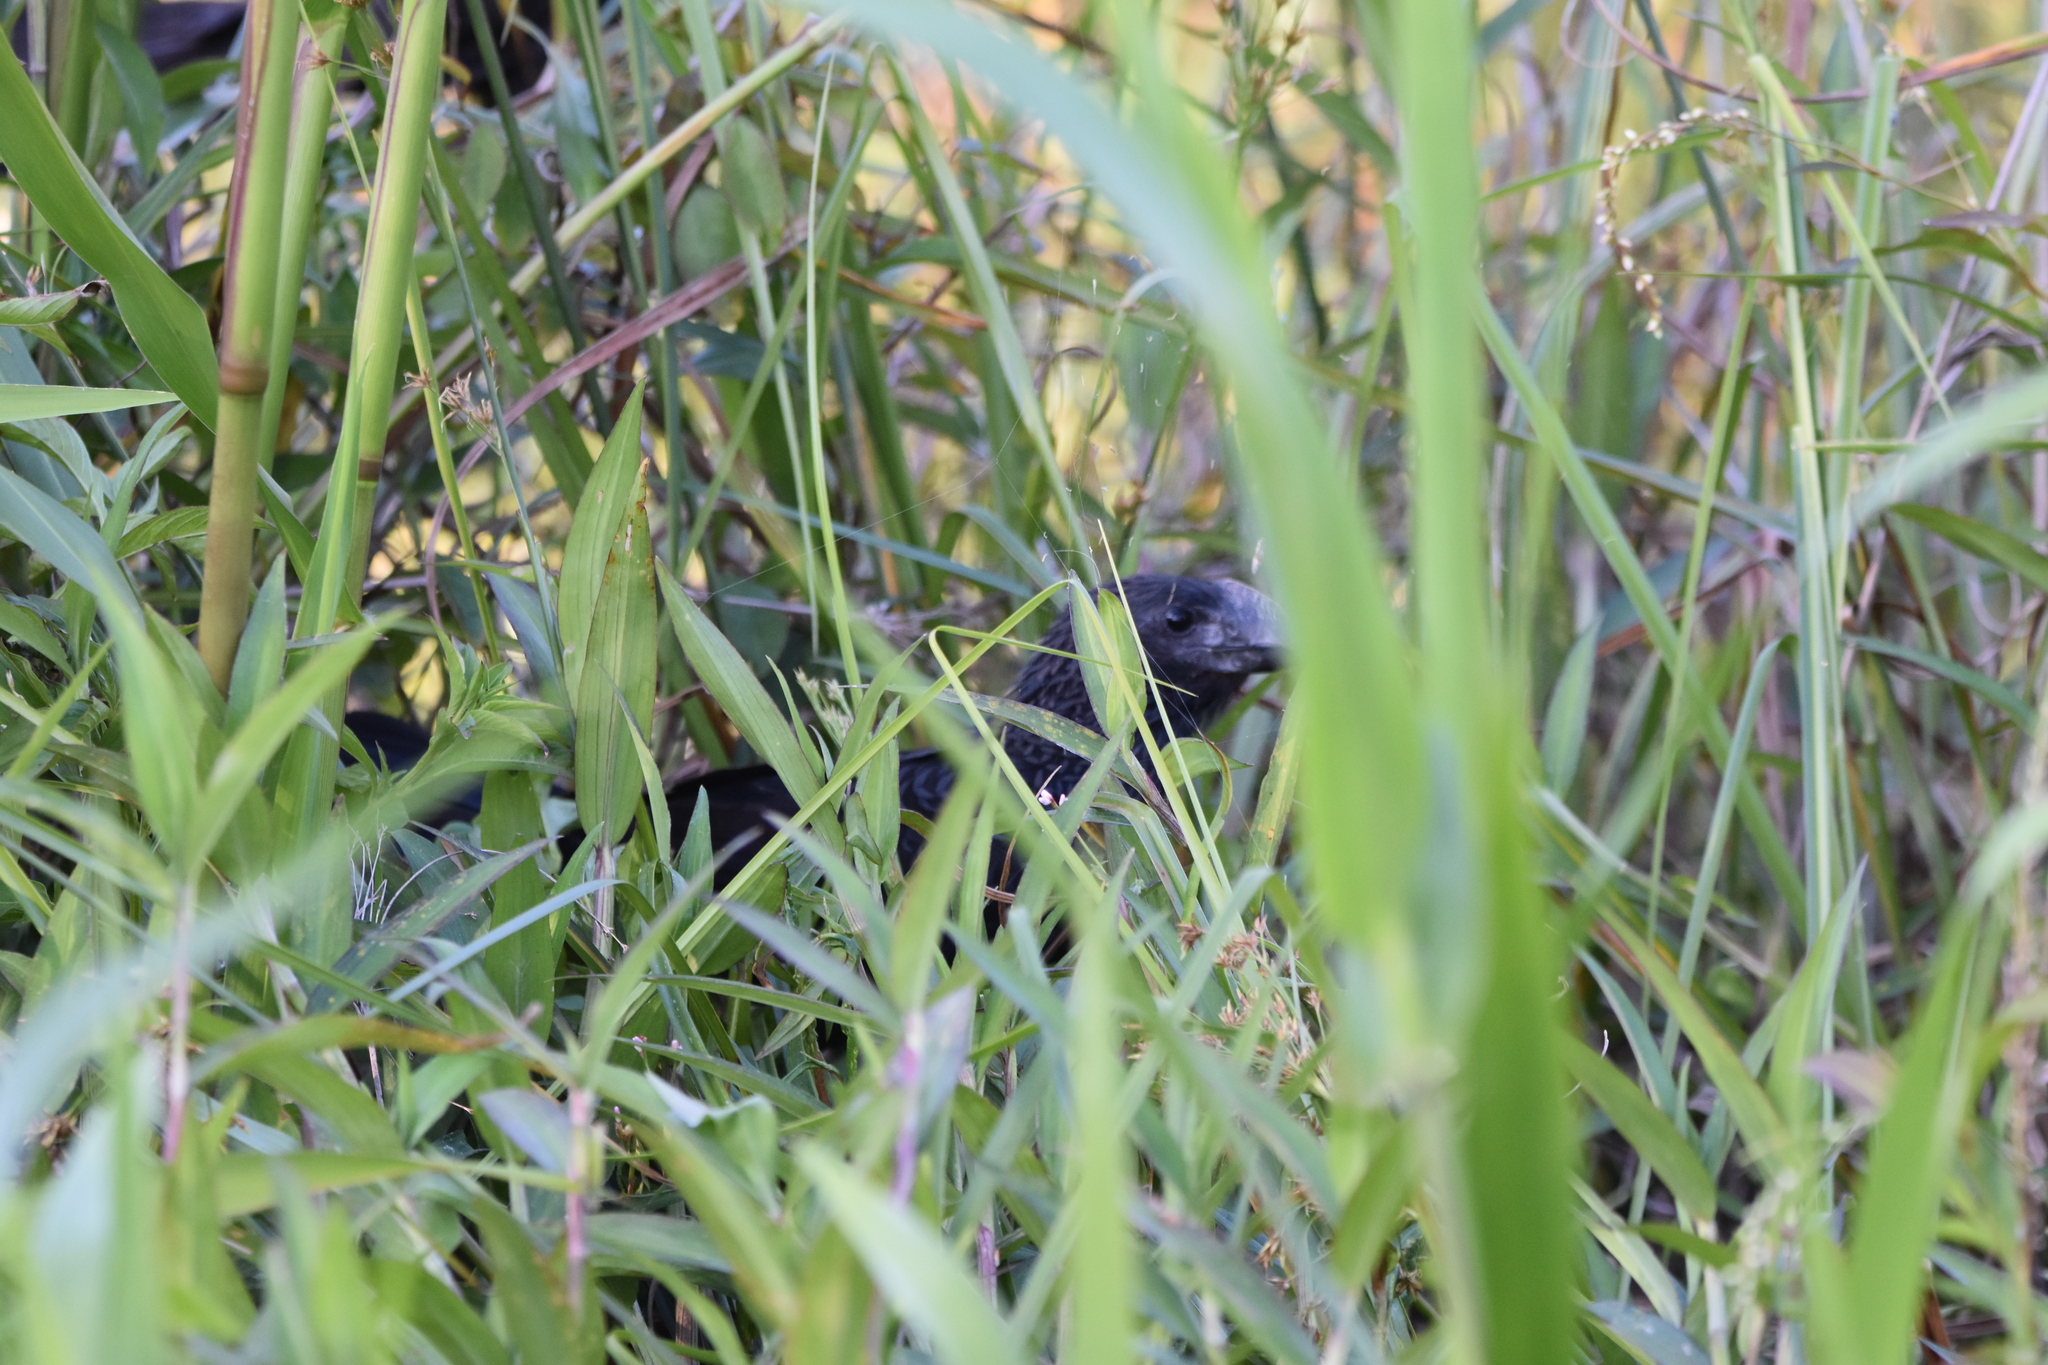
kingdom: Animalia
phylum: Chordata
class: Aves
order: Cuculiformes
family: Cuculidae
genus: Crotophaga
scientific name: Crotophaga ani
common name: Smooth-billed ani
